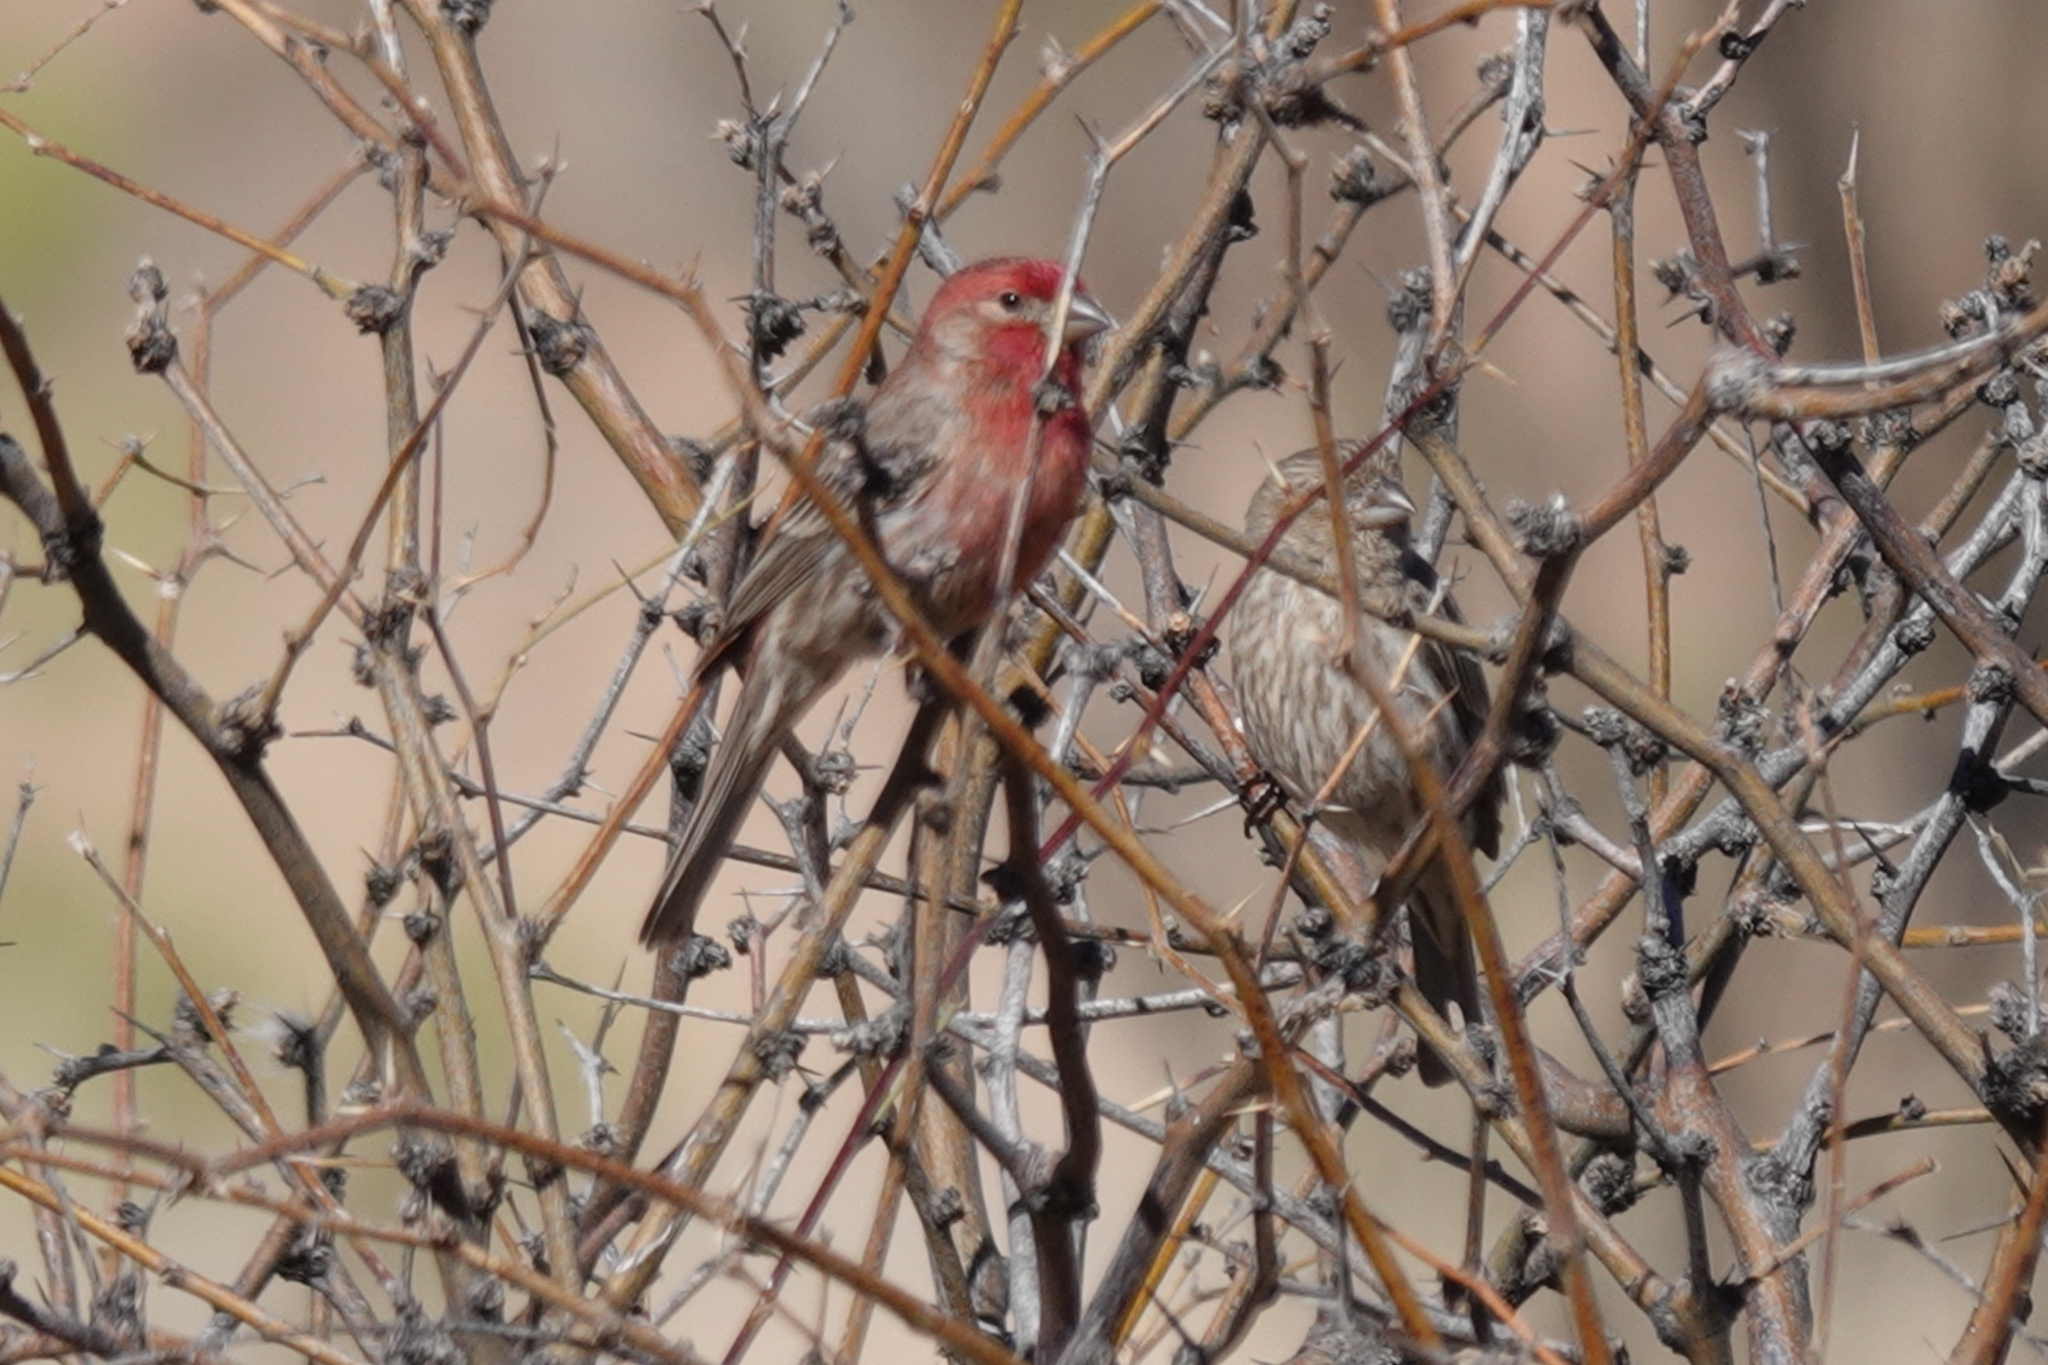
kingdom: Animalia
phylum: Chordata
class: Aves
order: Passeriformes
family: Fringillidae
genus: Haemorhous
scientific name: Haemorhous mexicanus
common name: House finch
